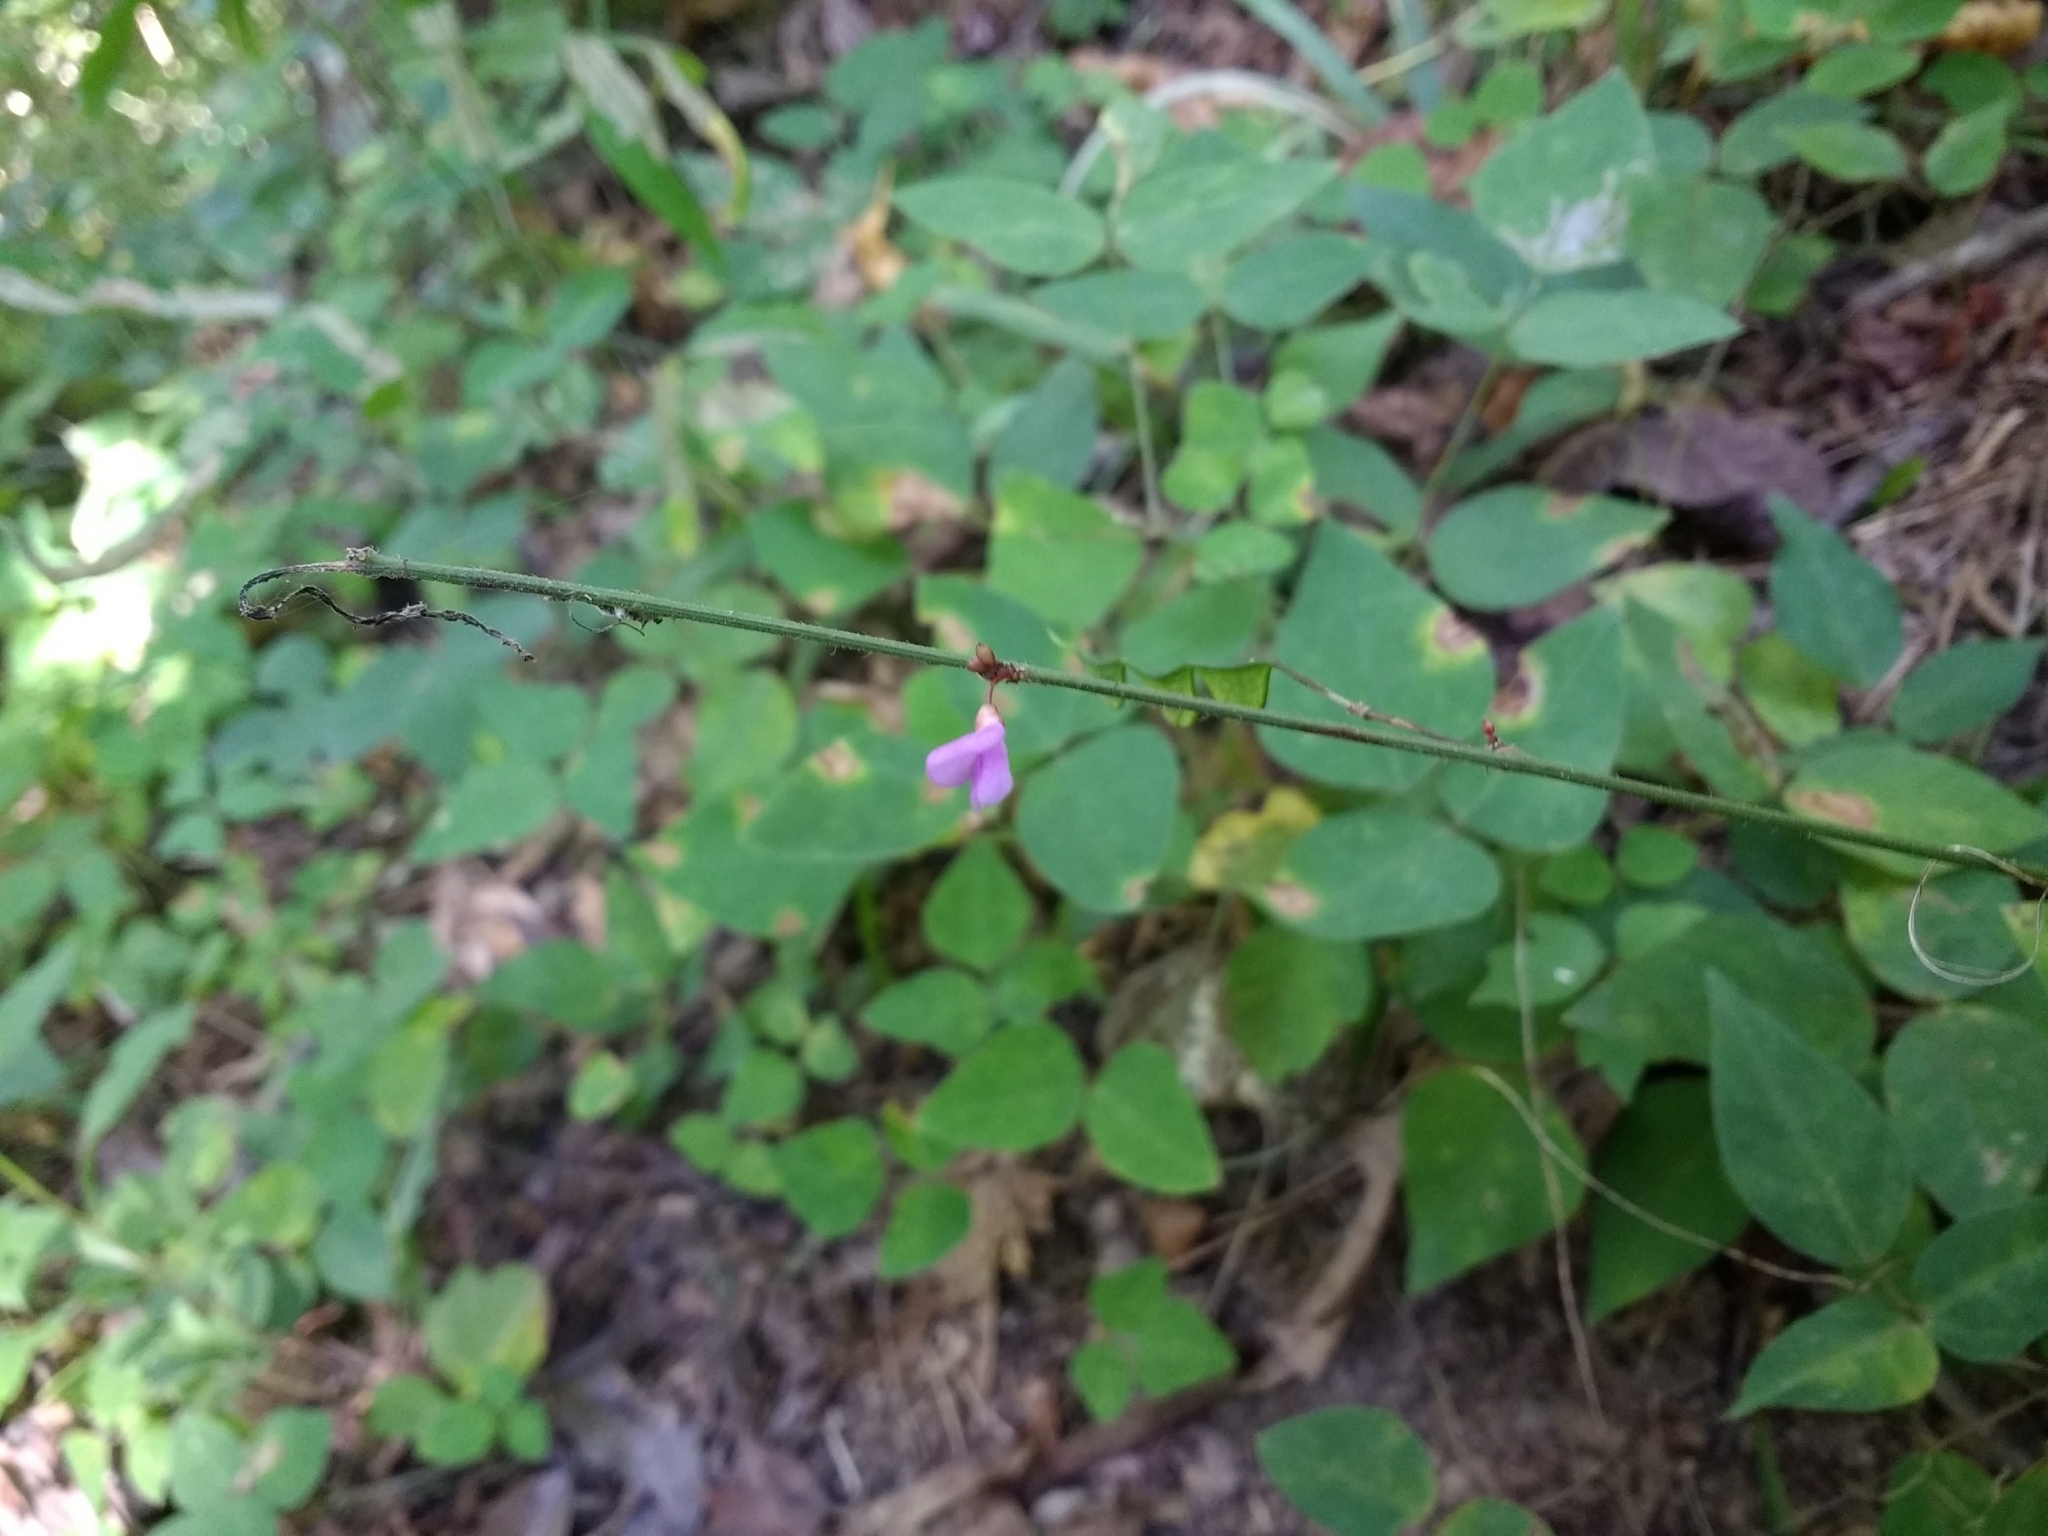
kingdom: Plantae
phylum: Tracheophyta
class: Magnoliopsida
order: Fabales
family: Fabaceae
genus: Hylodesmum
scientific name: Hylodesmum nudiflorum
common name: Bare-stemmed tick-trefoil
